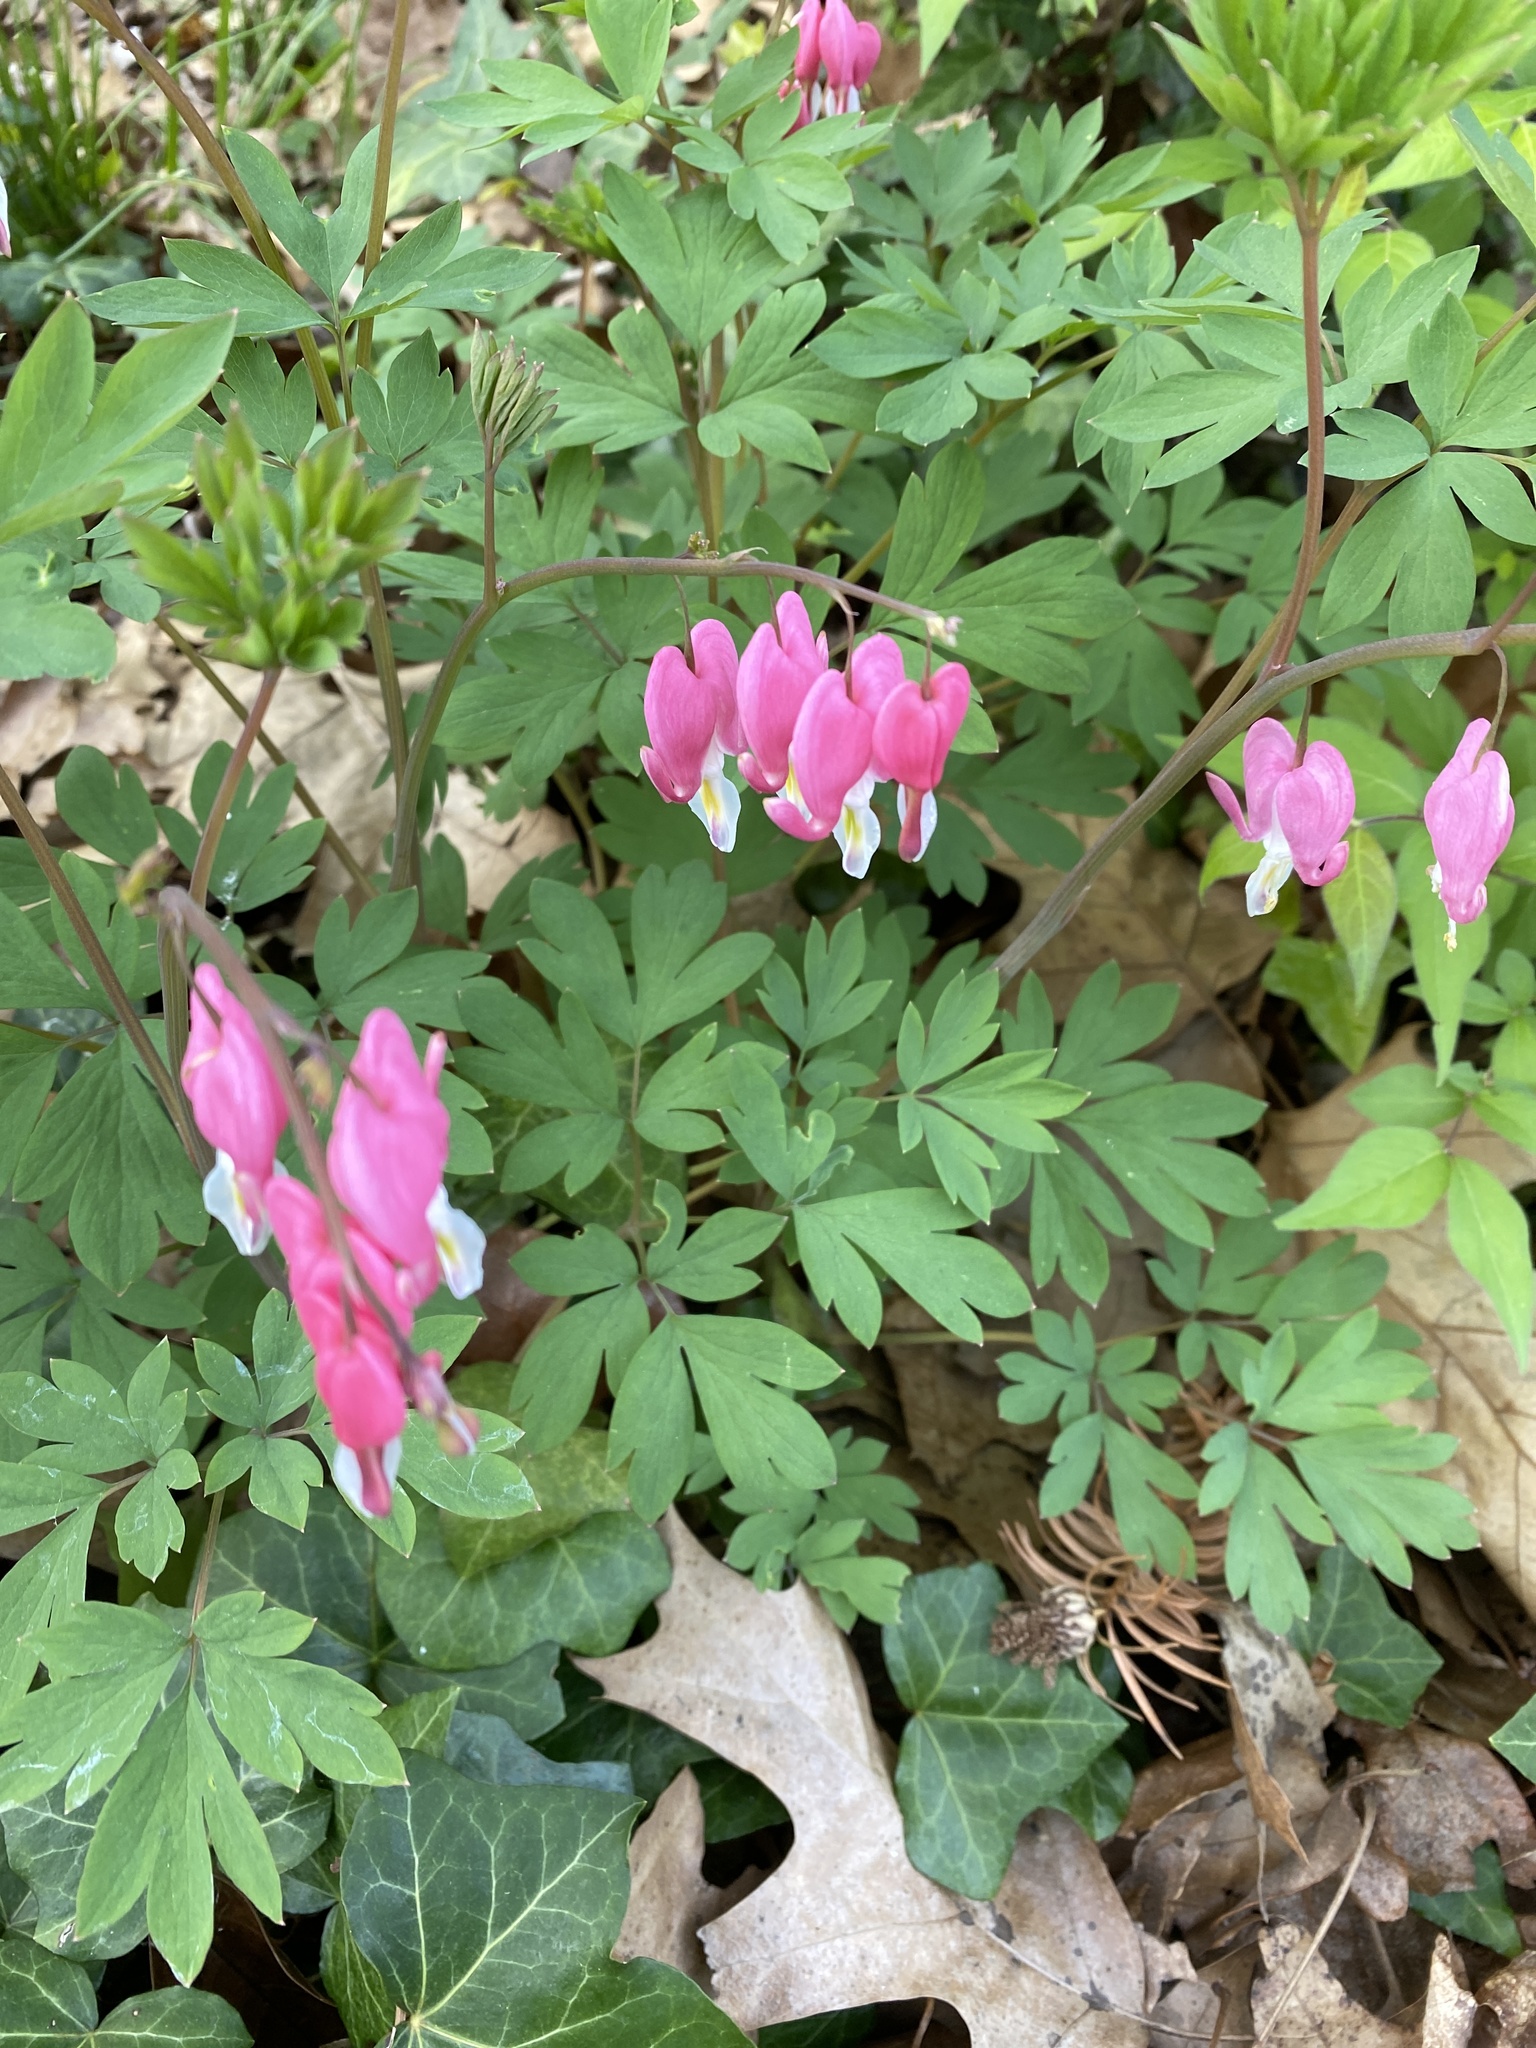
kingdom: Plantae
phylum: Tracheophyta
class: Magnoliopsida
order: Ranunculales
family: Papaveraceae
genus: Lamprocapnos
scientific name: Lamprocapnos spectabilis
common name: Asian bleeding-heart
